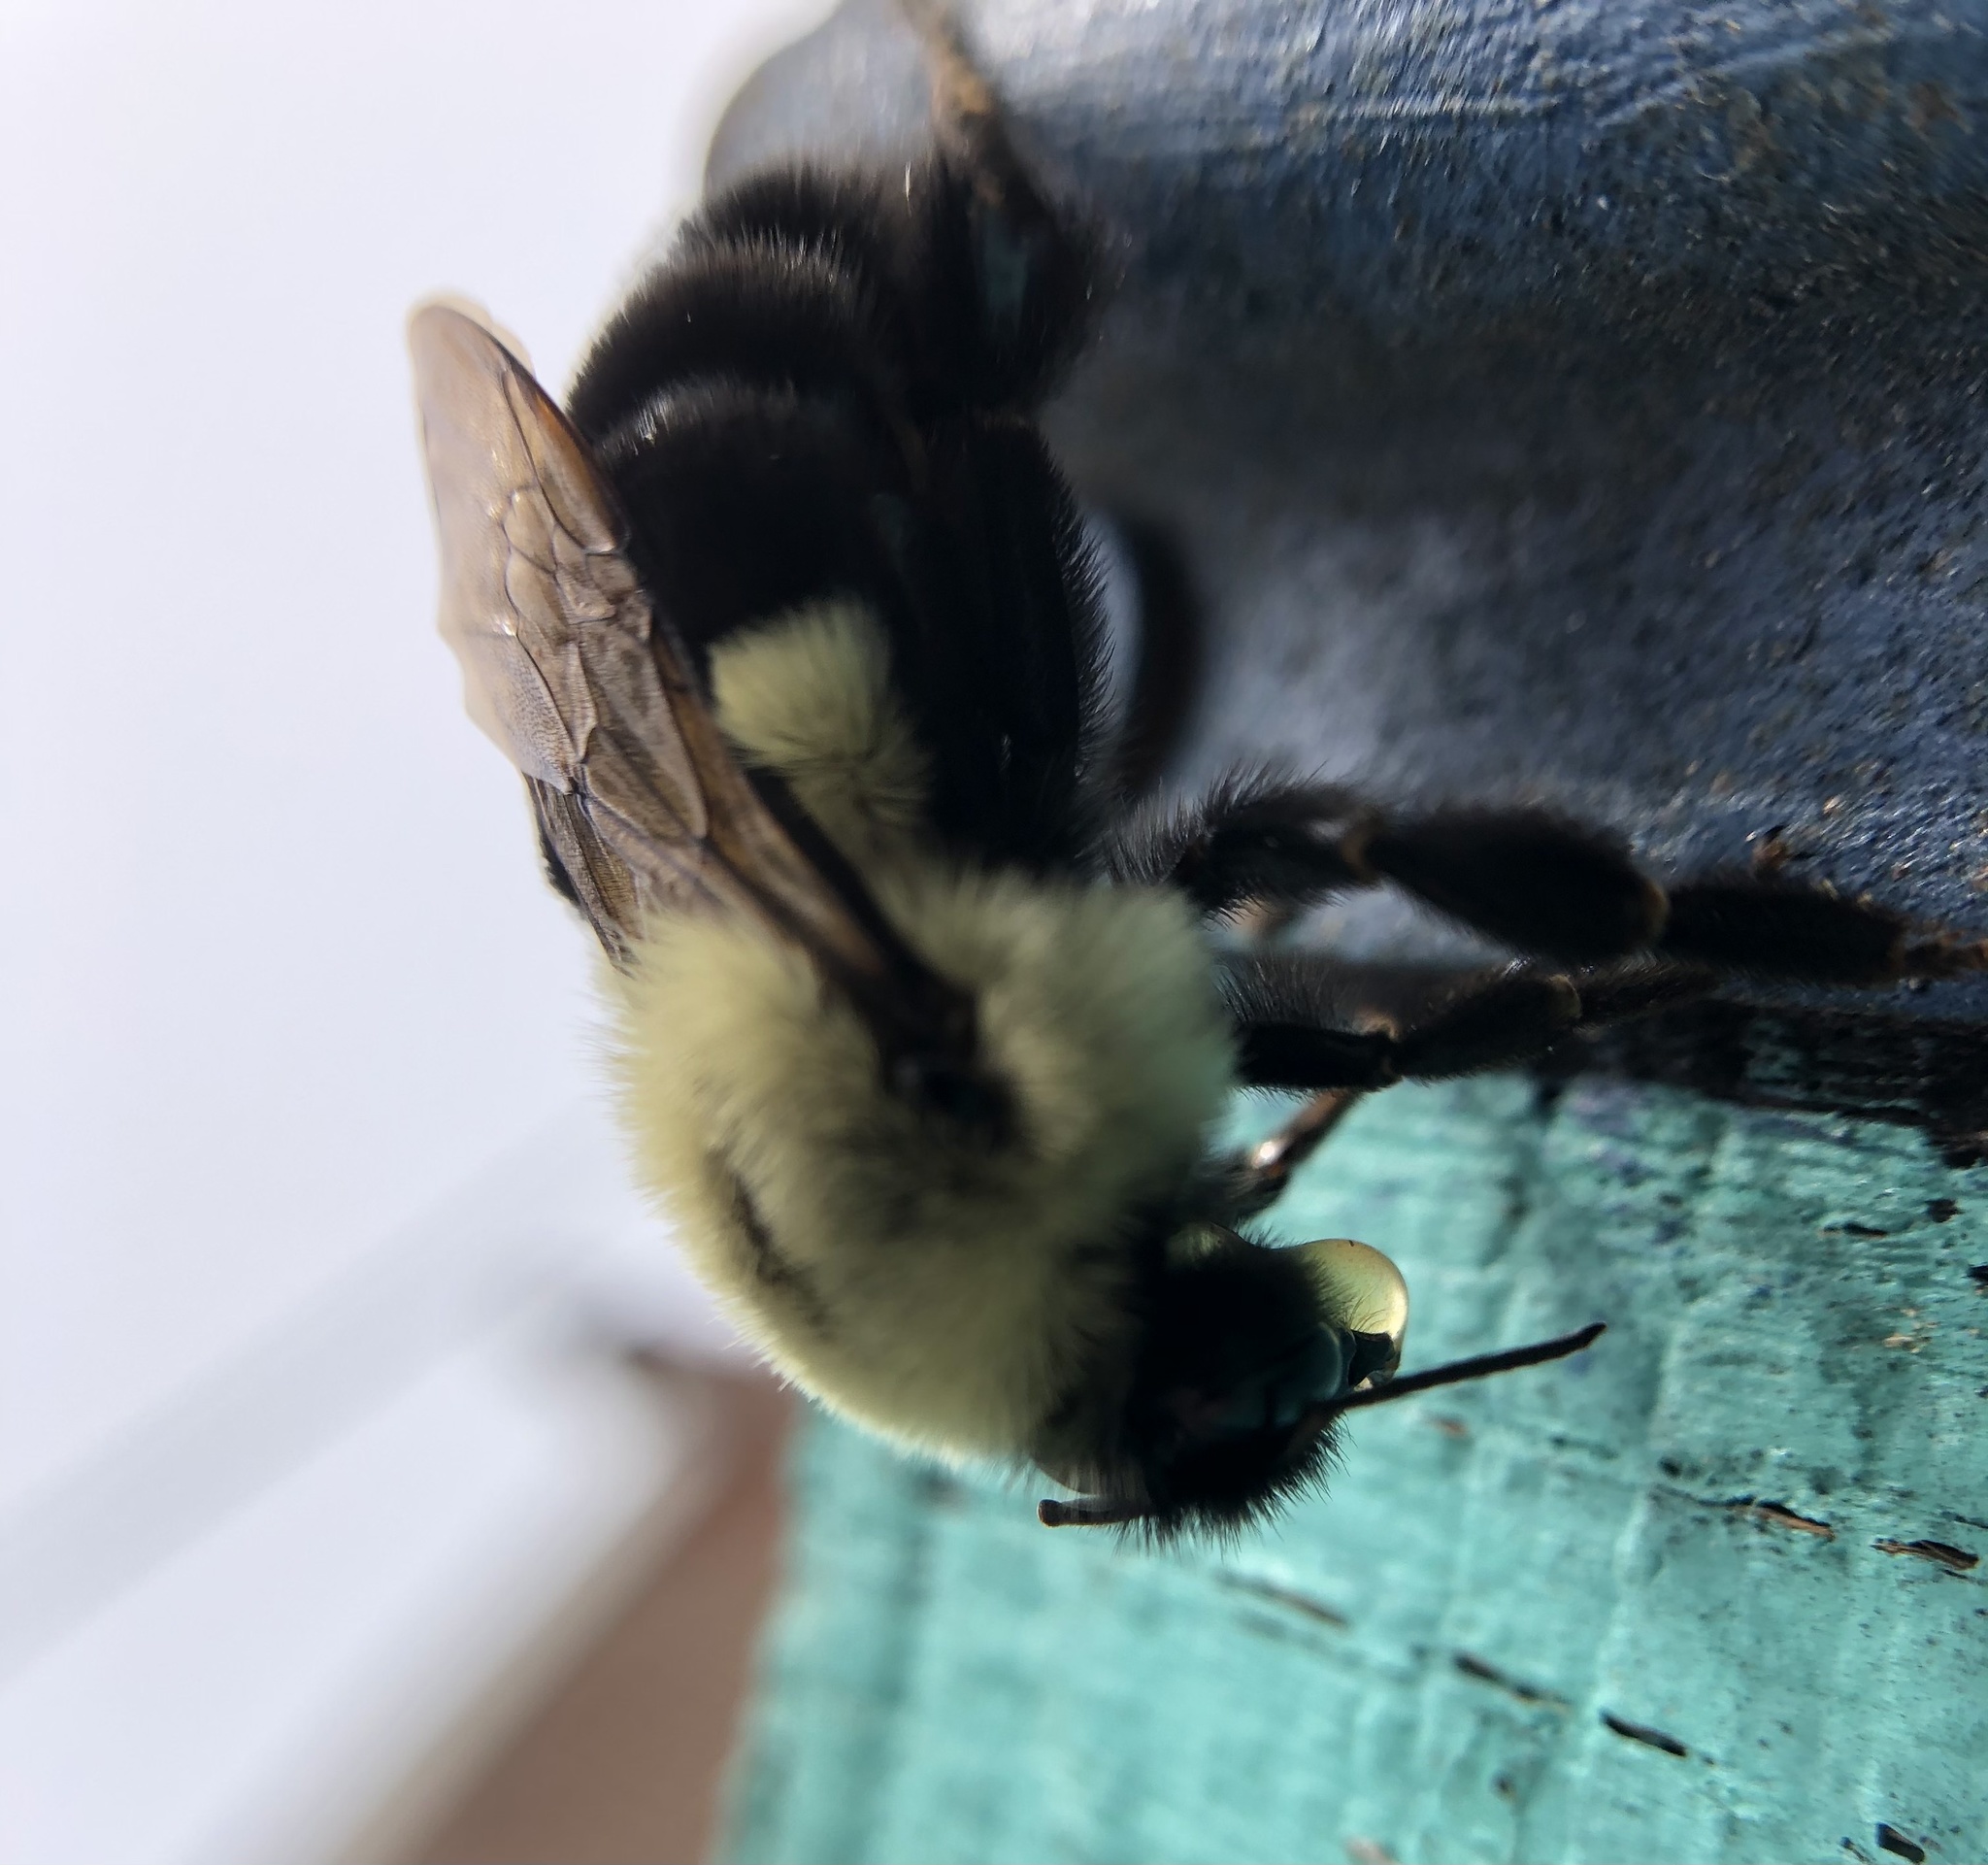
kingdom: Animalia
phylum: Arthropoda
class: Insecta
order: Hymenoptera
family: Apidae
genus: Bombus
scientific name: Bombus impatiens
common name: Common eastern bumble bee
